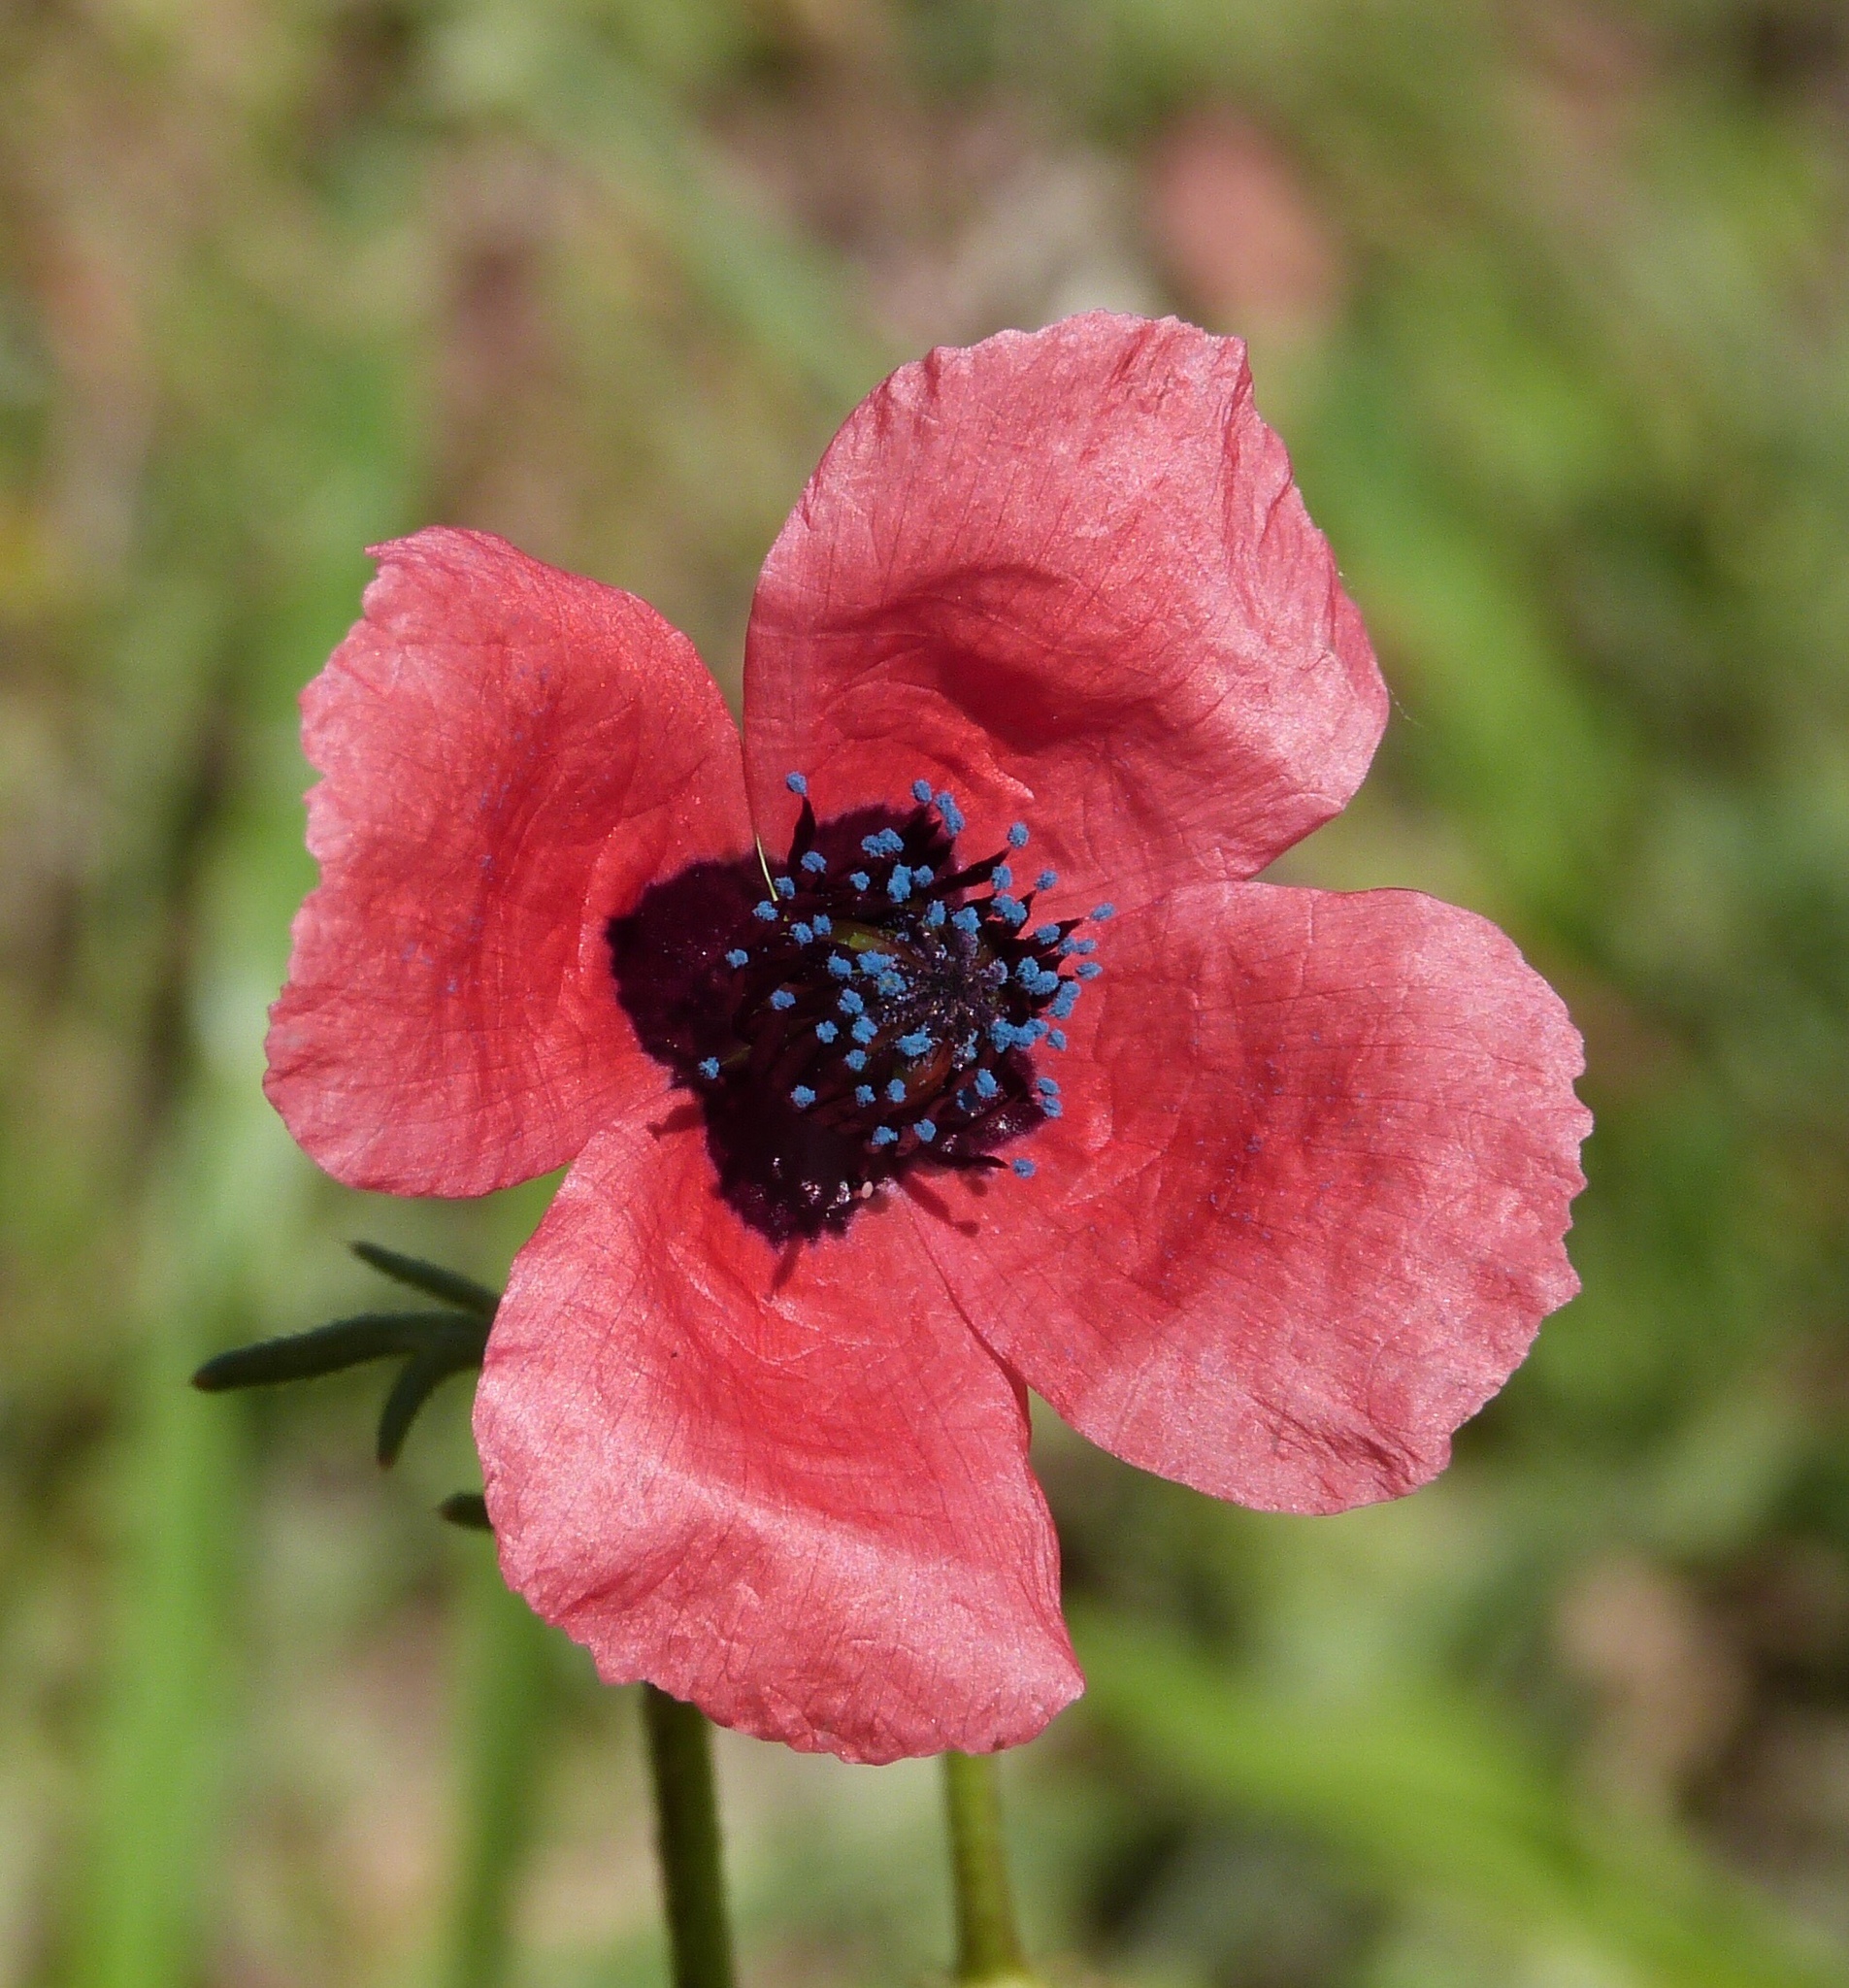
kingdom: Plantae
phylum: Tracheophyta
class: Magnoliopsida
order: Ranunculales
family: Papaveraceae
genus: Roemeria
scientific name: Roemeria hispida
